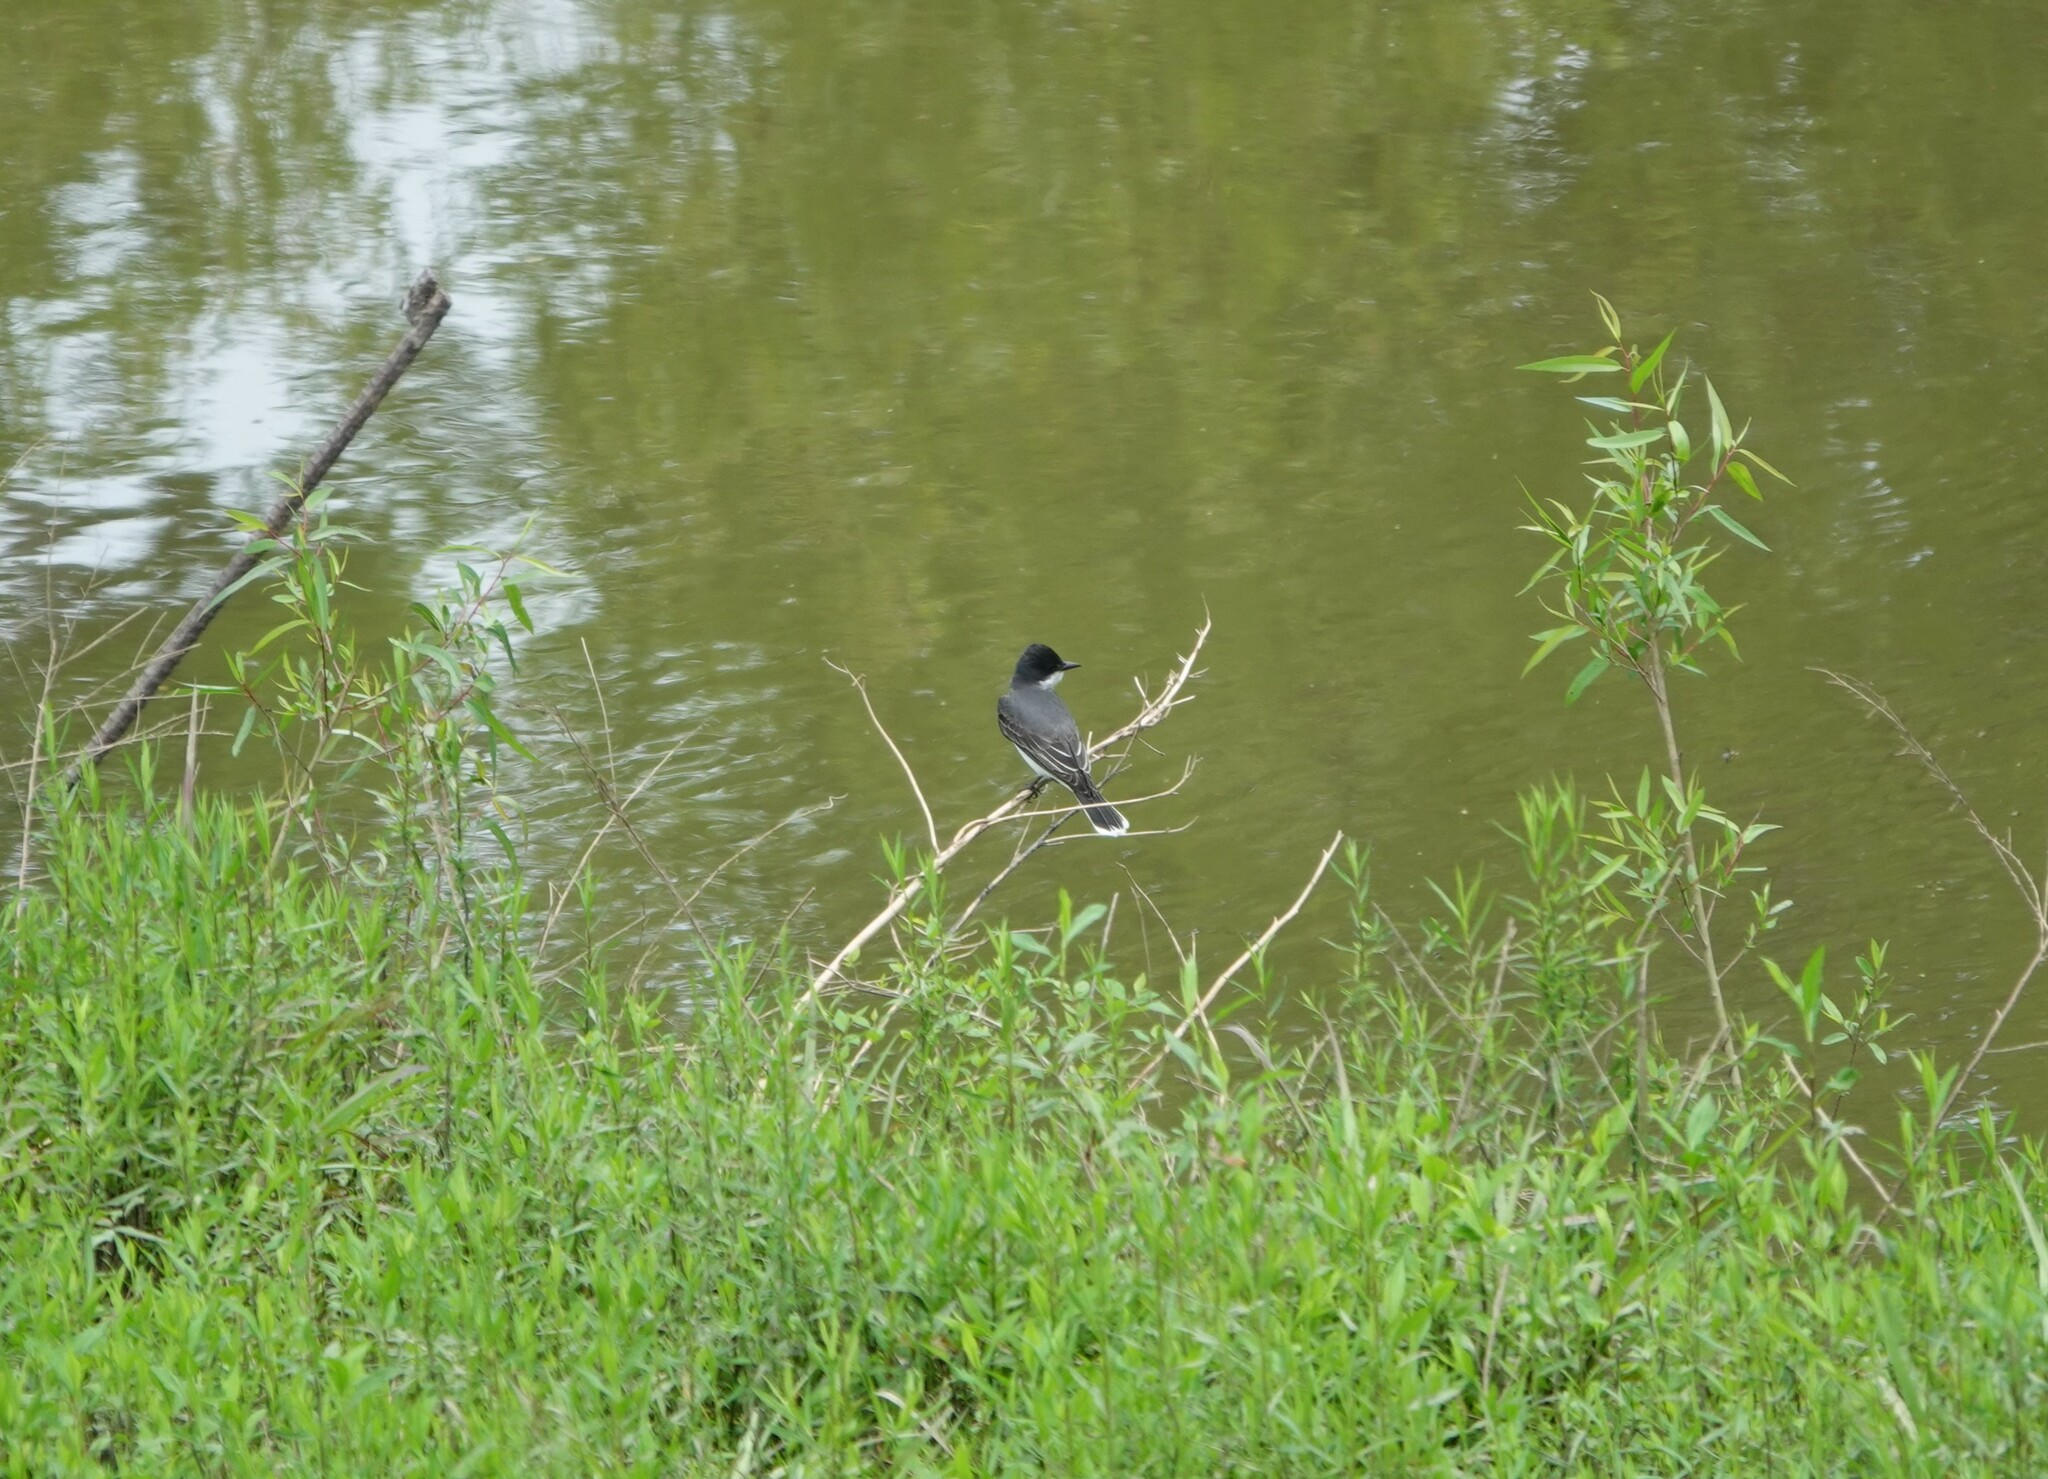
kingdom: Animalia
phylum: Chordata
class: Aves
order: Passeriformes
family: Tyrannidae
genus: Tyrannus
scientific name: Tyrannus tyrannus
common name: Eastern kingbird
